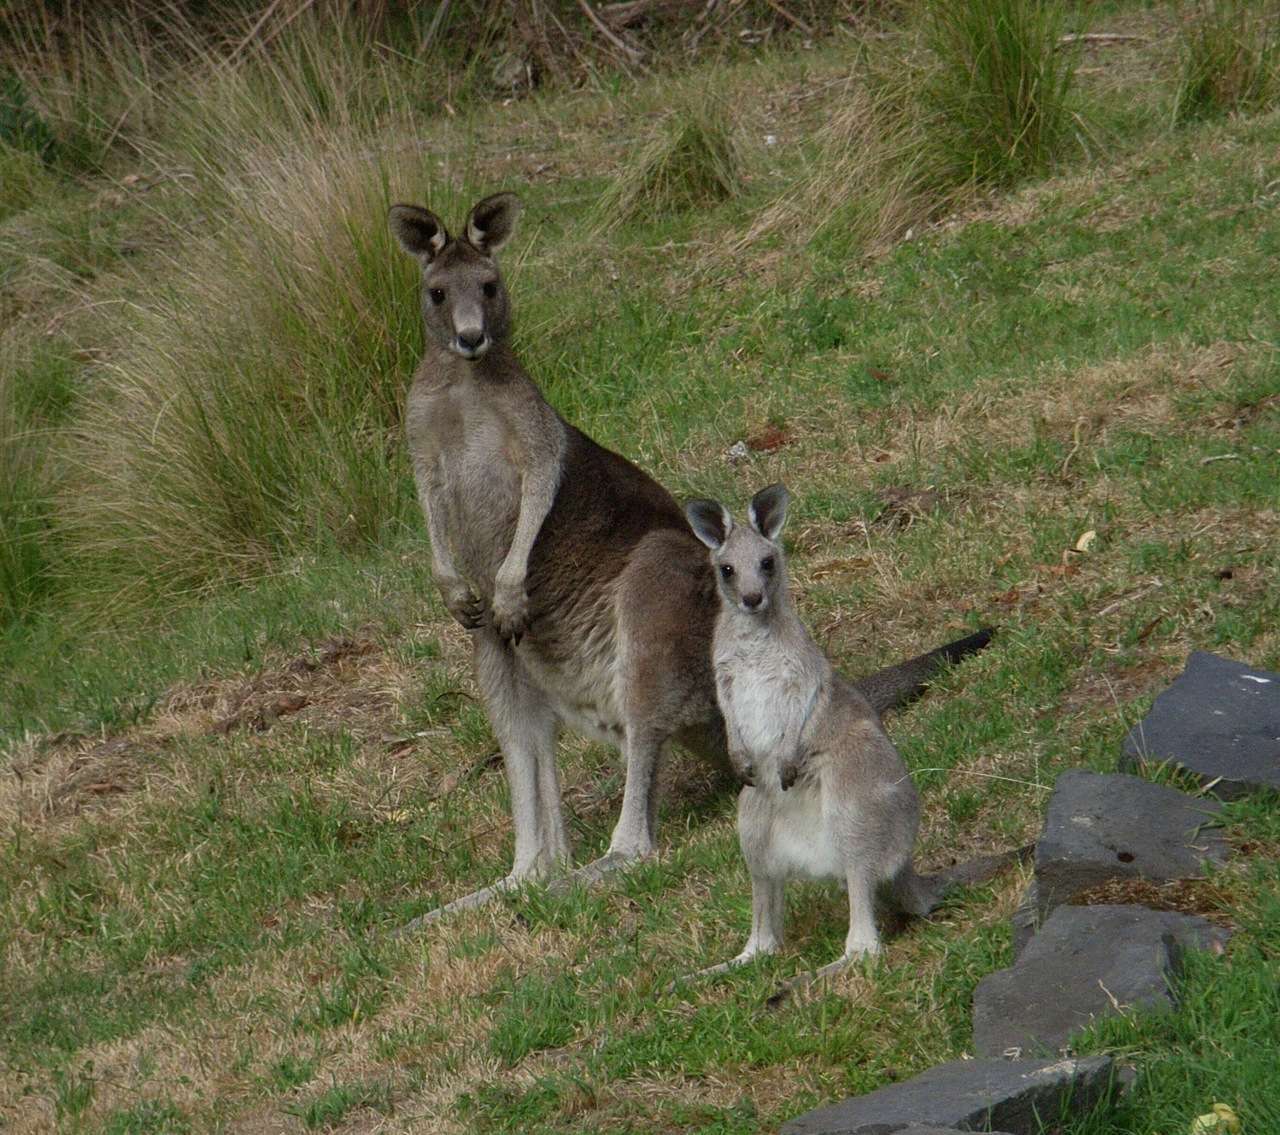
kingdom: Animalia
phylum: Chordata
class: Mammalia
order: Diprotodontia
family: Macropodidae
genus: Macropus
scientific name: Macropus giganteus
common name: Eastern grey kangaroo
